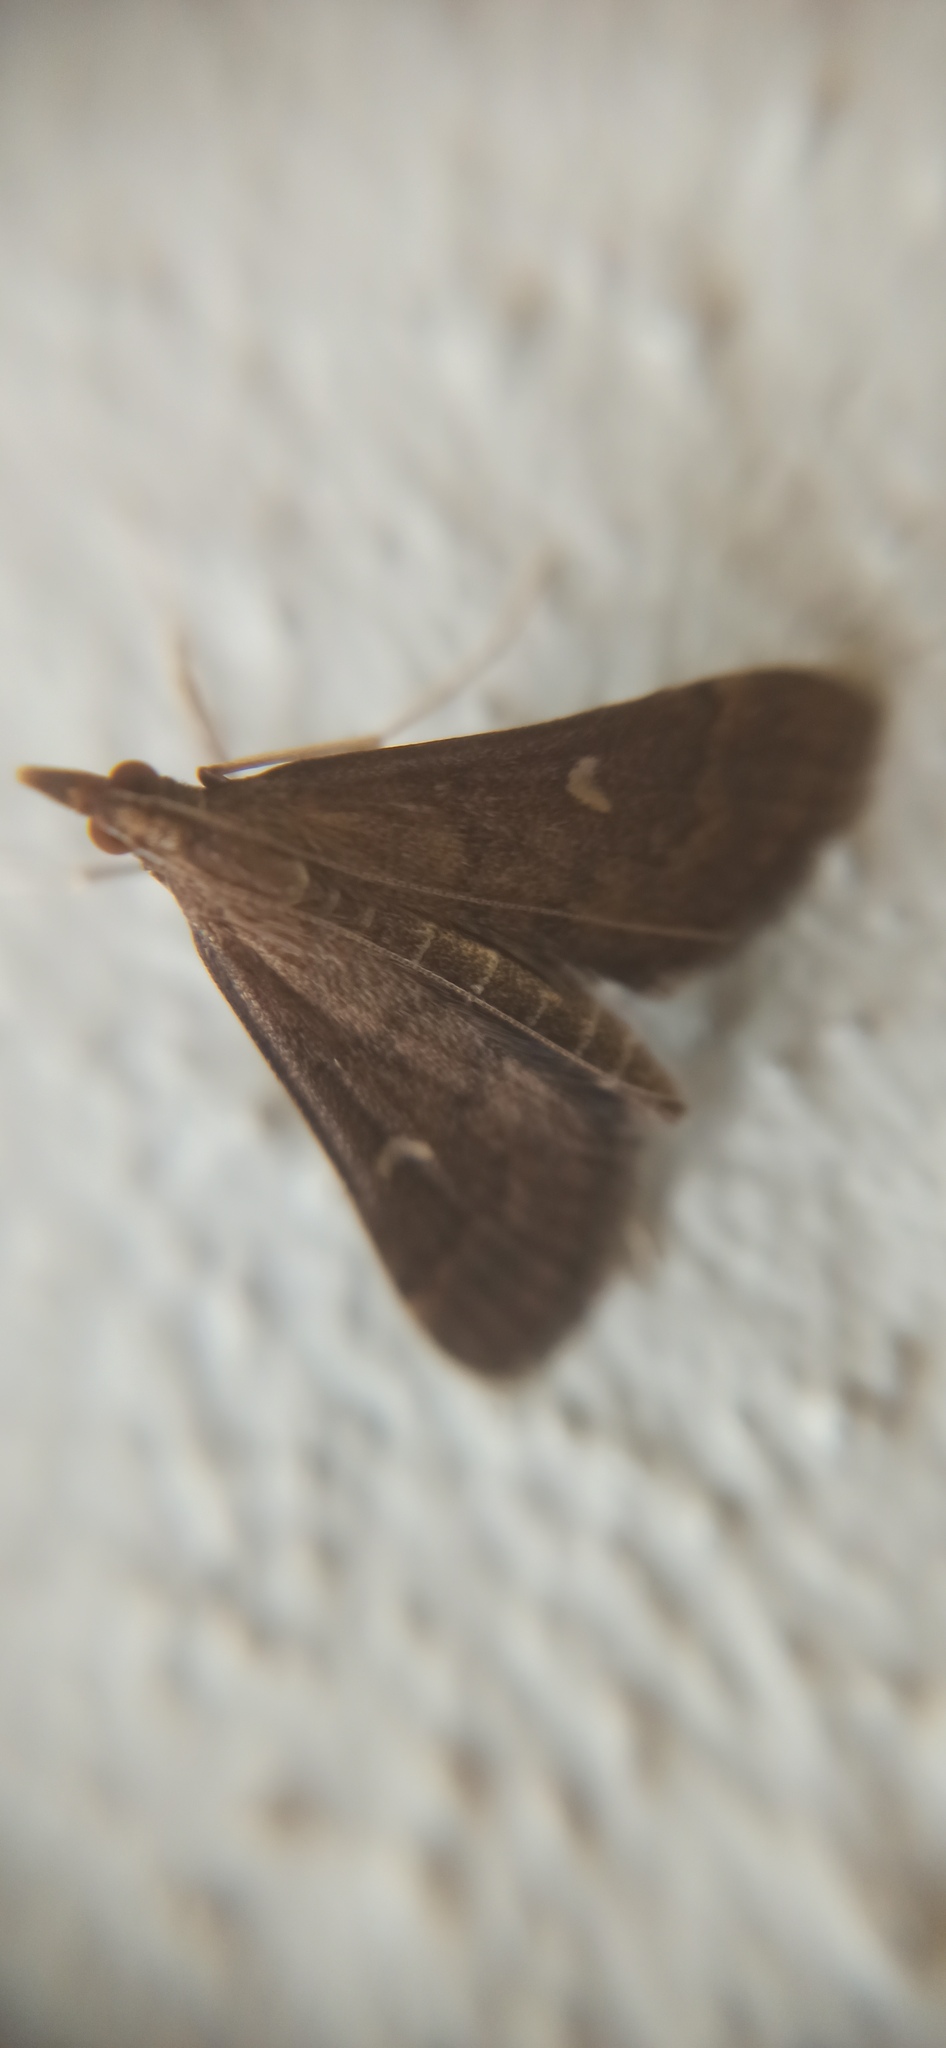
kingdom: Animalia
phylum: Arthropoda
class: Insecta
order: Lepidoptera
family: Crambidae
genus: Stenia
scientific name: Stenia Dolicharthria punctalis
